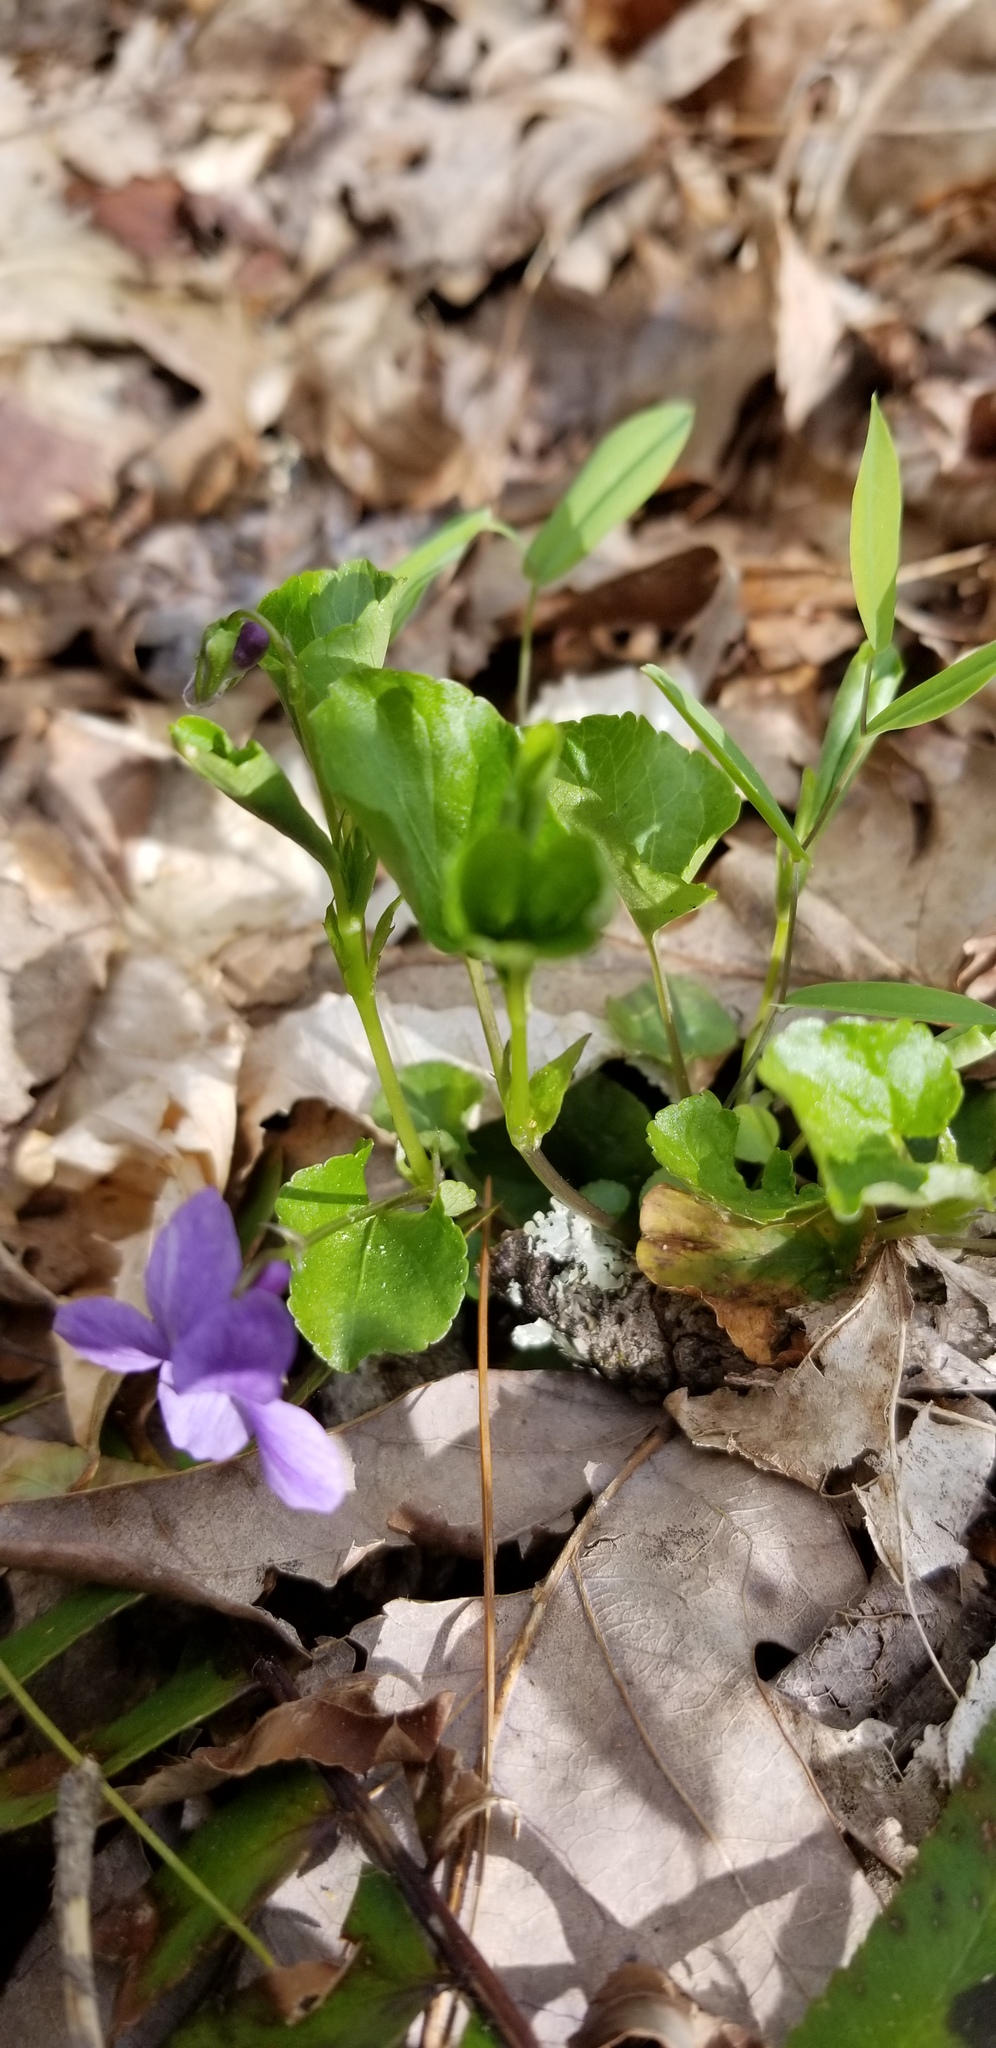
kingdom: Plantae
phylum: Tracheophyta
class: Magnoliopsida
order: Malpighiales
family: Violaceae
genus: Viola
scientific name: Viola labradorica
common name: Labrador violet
